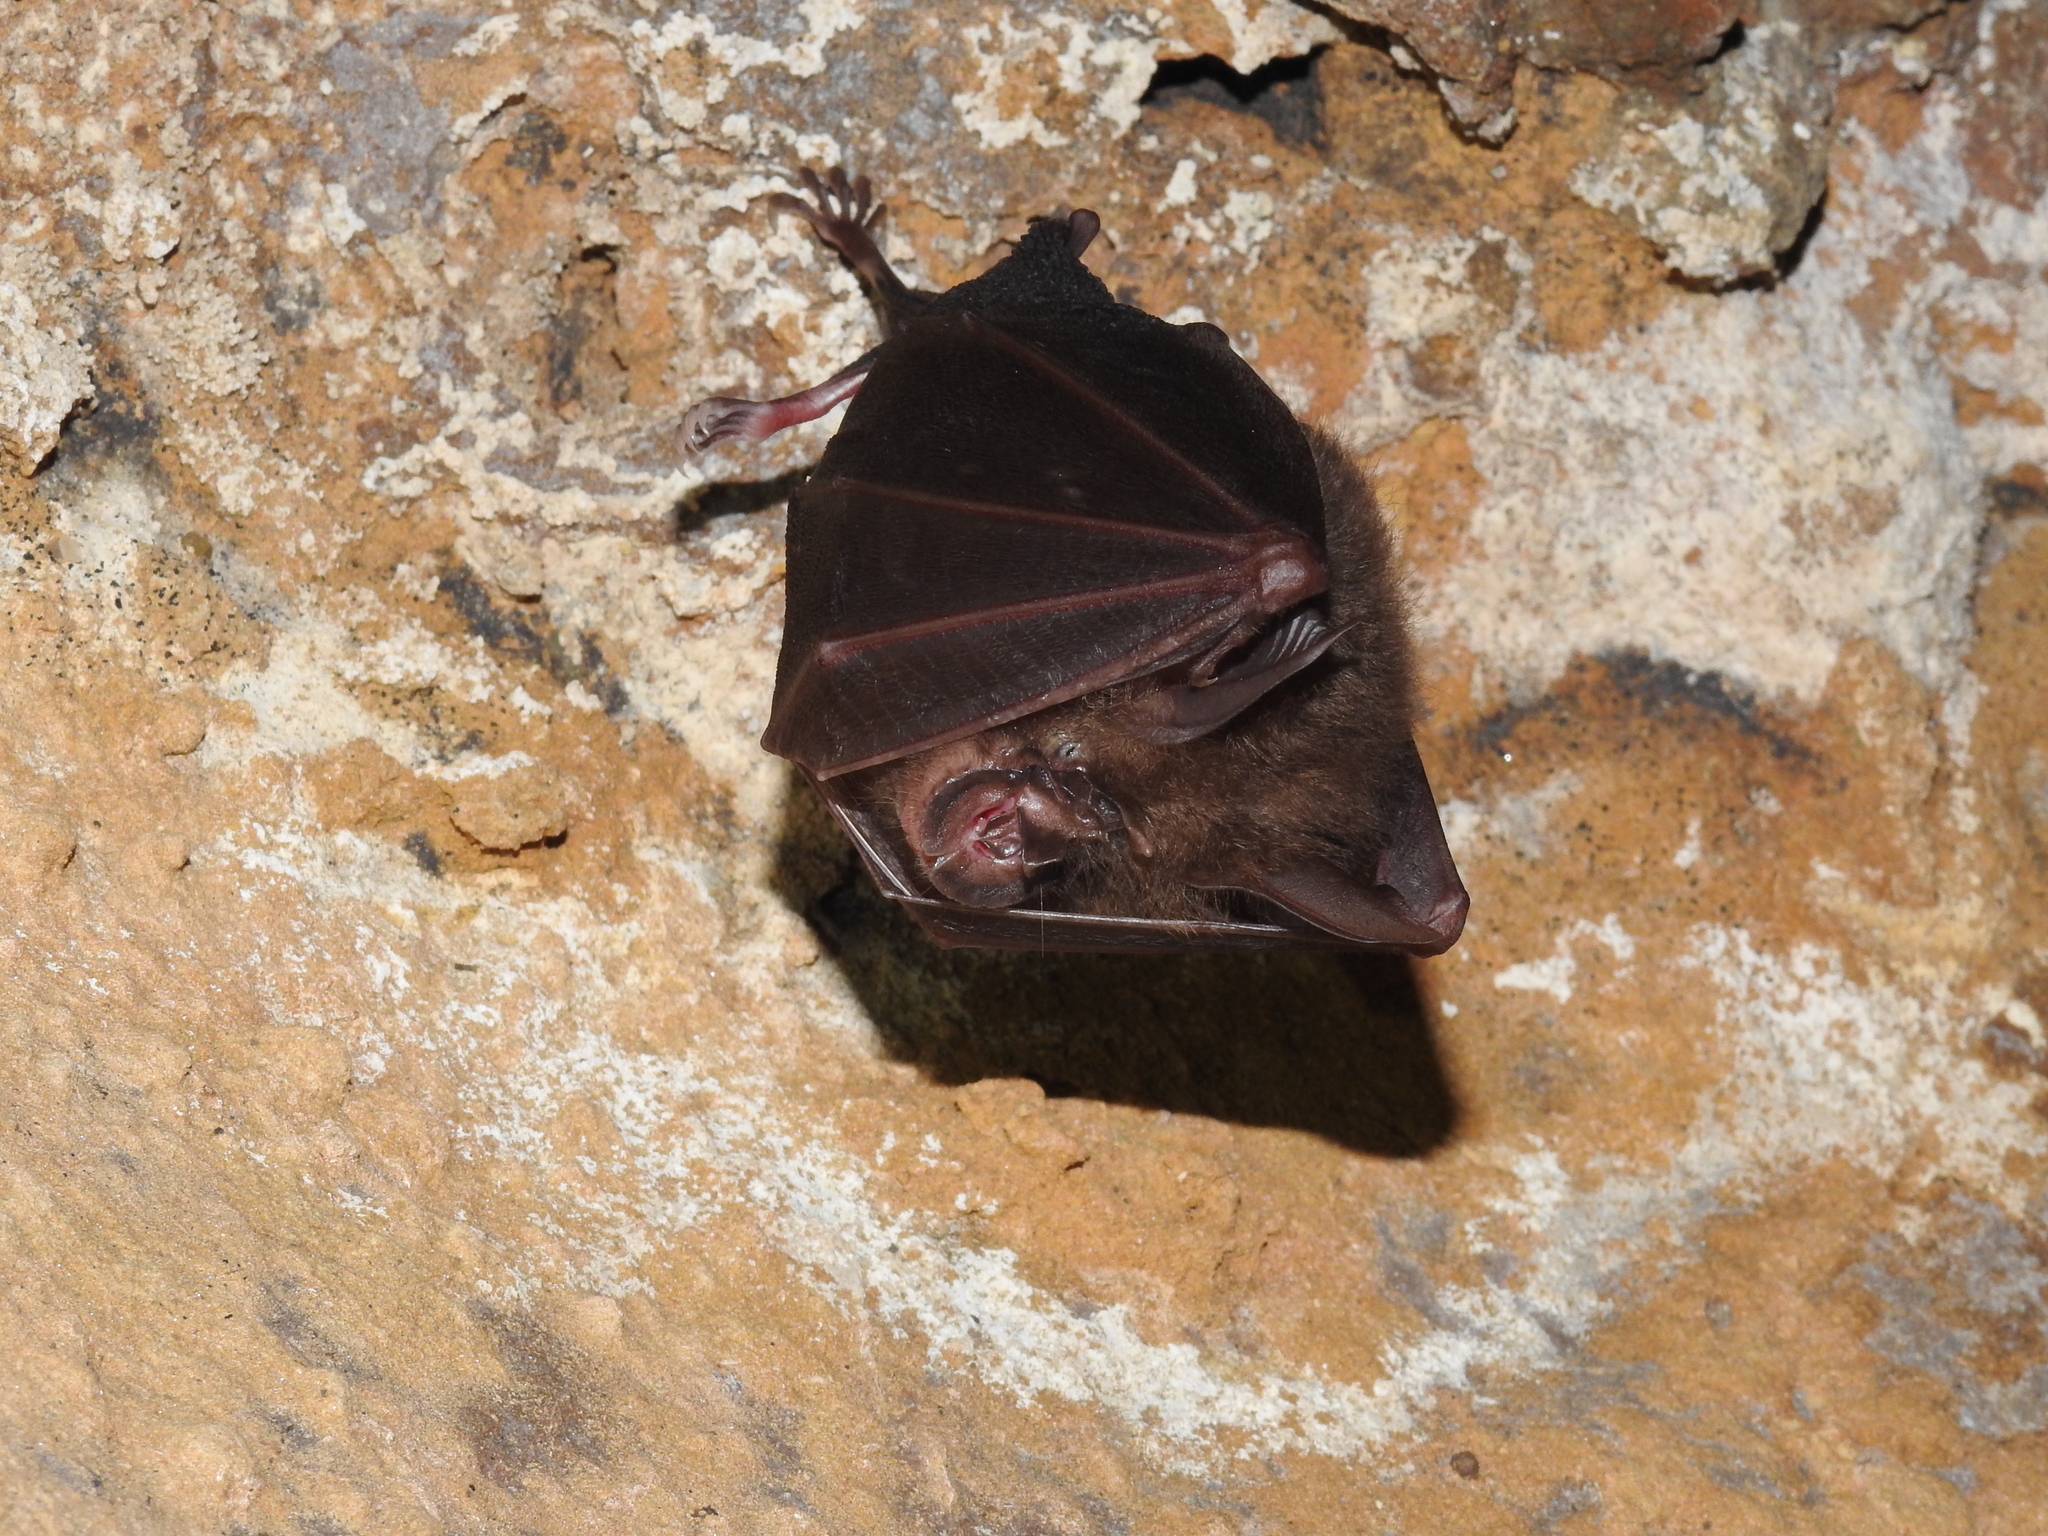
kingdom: Animalia
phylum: Chordata
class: Mammalia
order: Chiroptera
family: Rhinolophidae
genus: Rhinolophus
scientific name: Rhinolophus pearsonii
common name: Pearson's horseshoe bat
